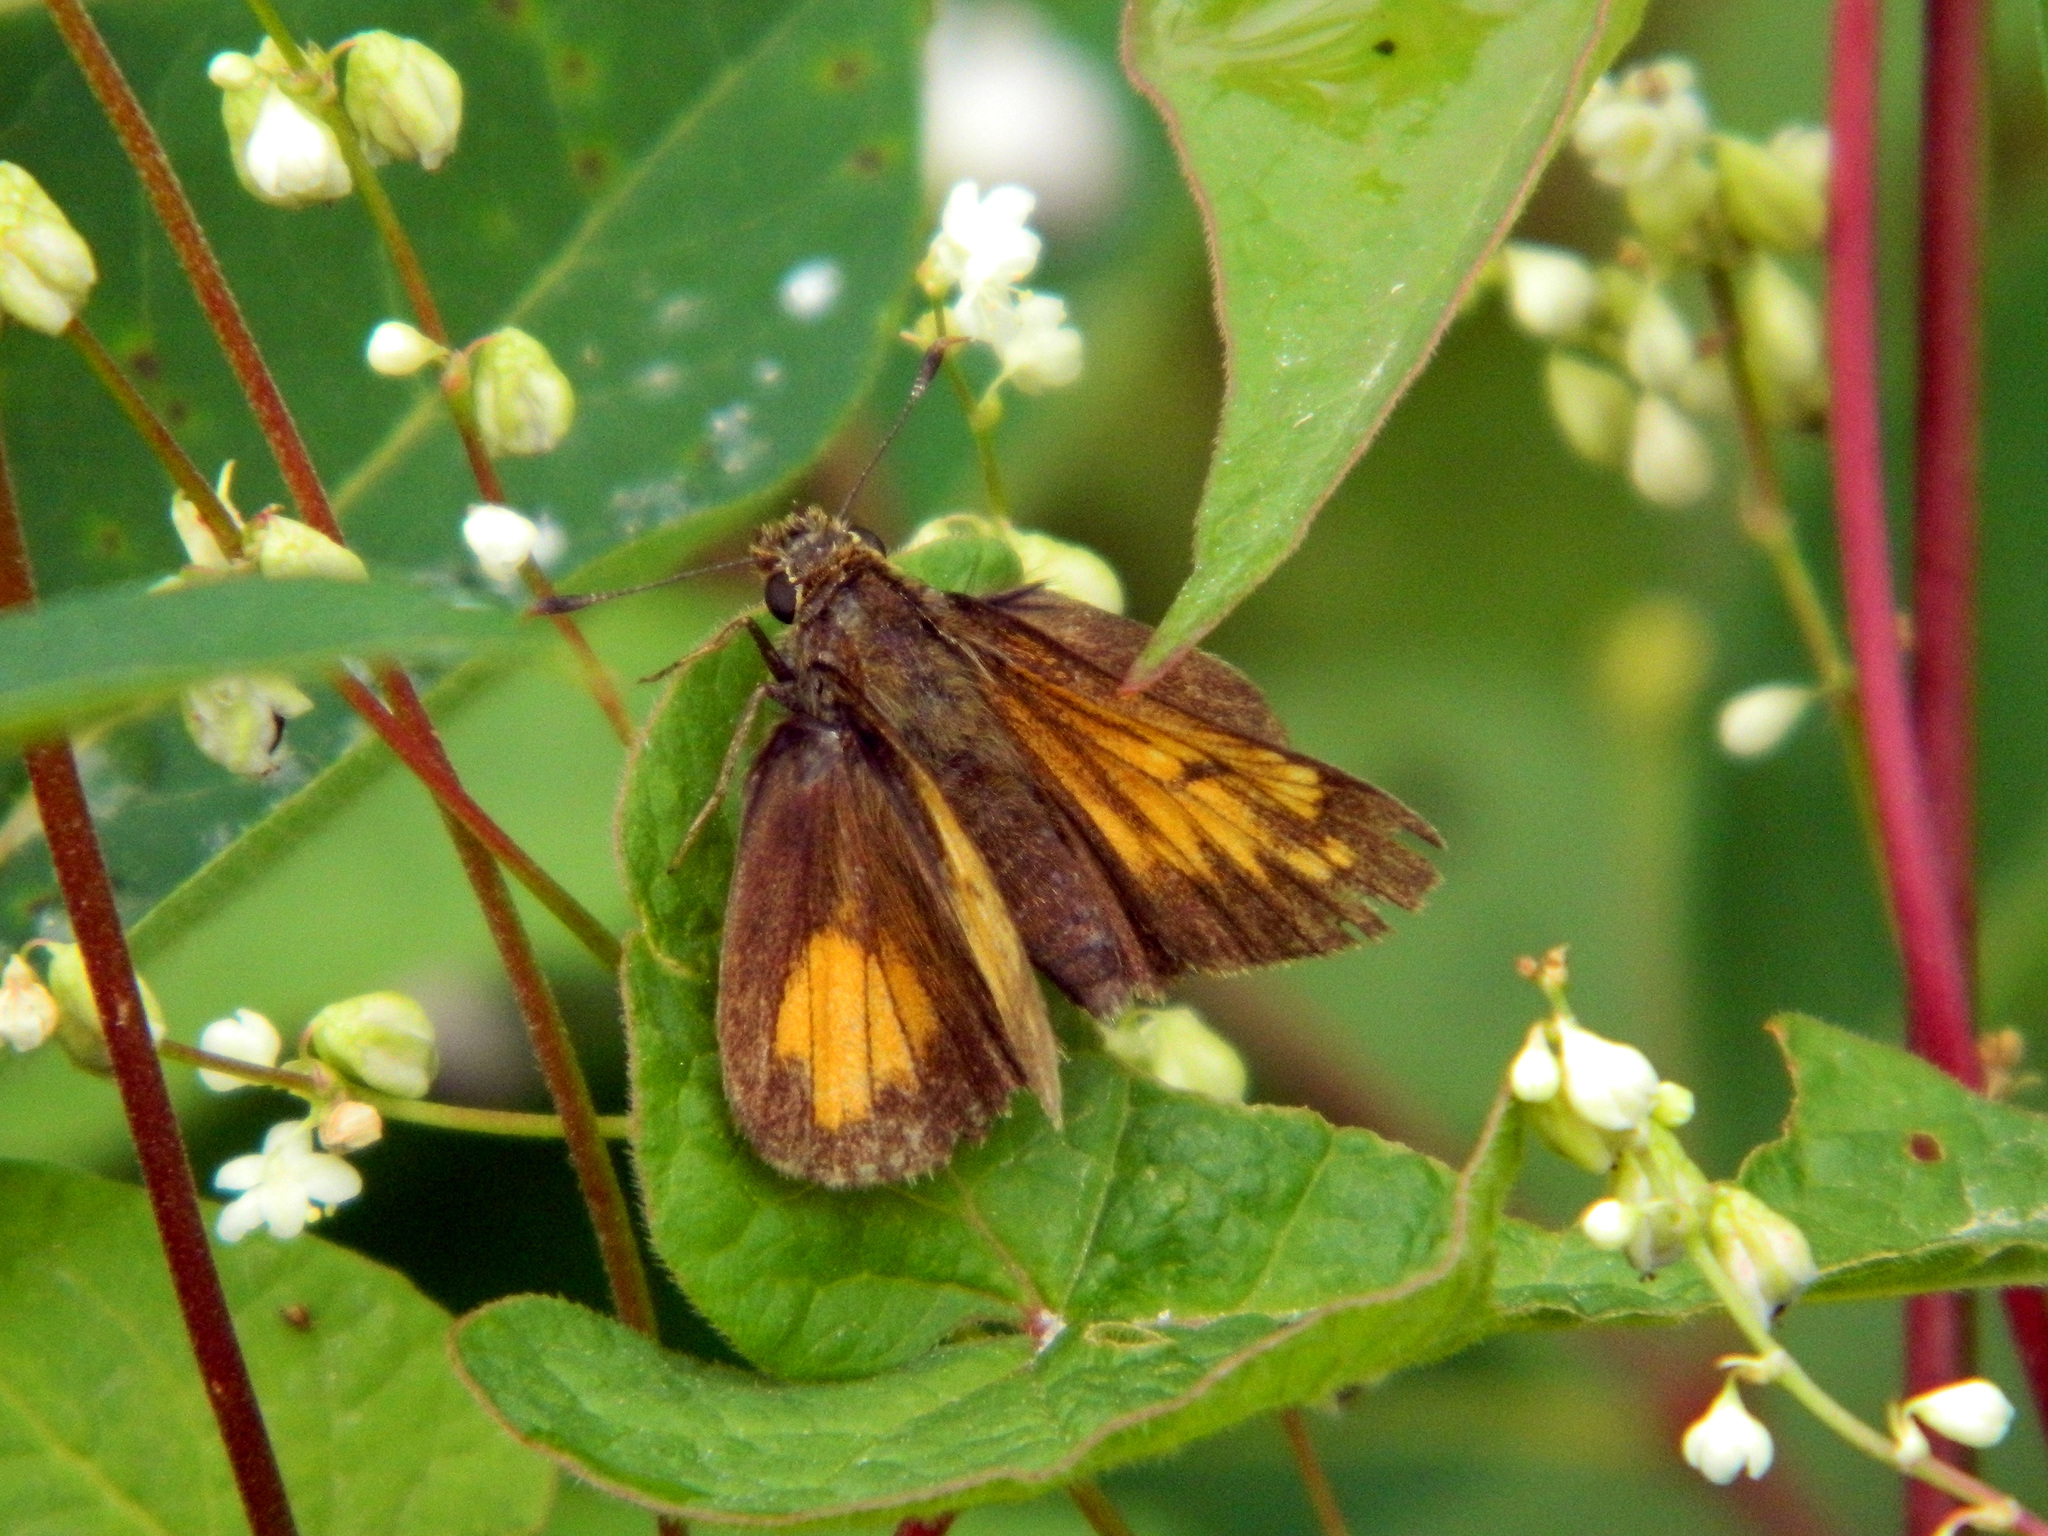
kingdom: Animalia
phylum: Arthropoda
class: Insecta
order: Lepidoptera
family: Hesperiidae
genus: Lon
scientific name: Lon hobomok
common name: Hobomok skipper
